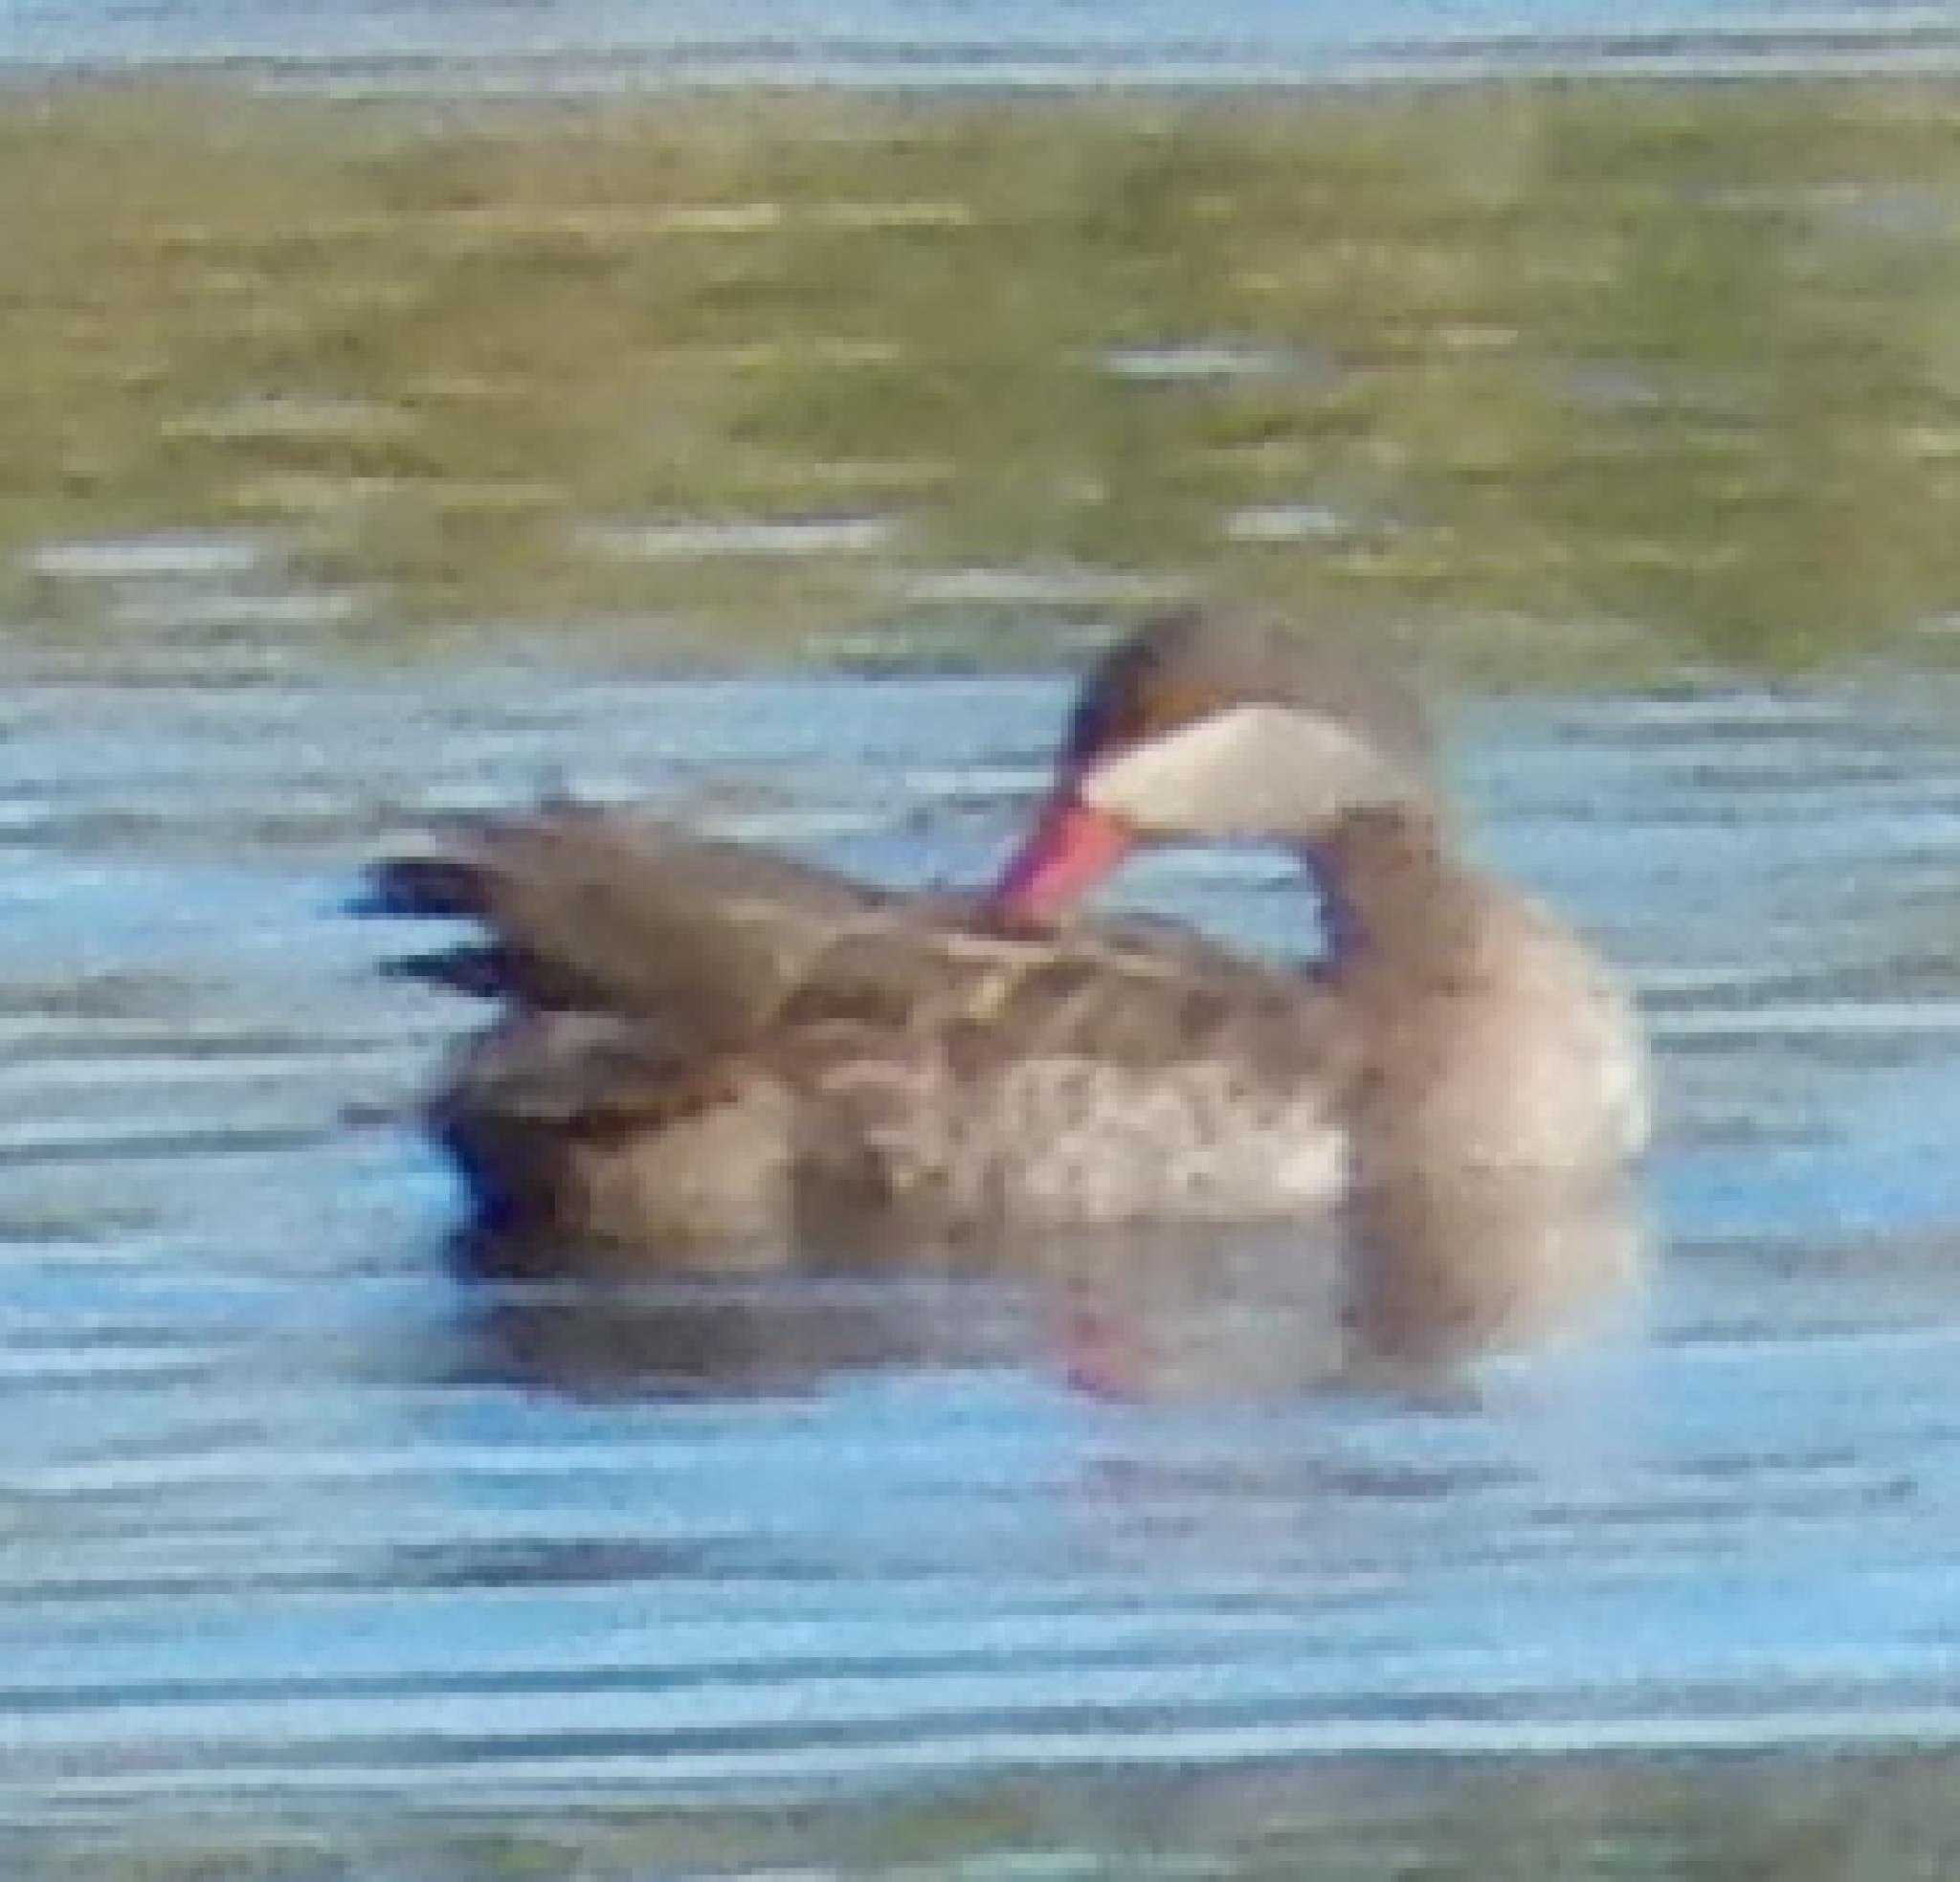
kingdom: Animalia
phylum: Chordata
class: Aves
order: Anseriformes
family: Anatidae
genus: Anas
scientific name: Anas erythrorhyncha
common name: Red-billed teal
